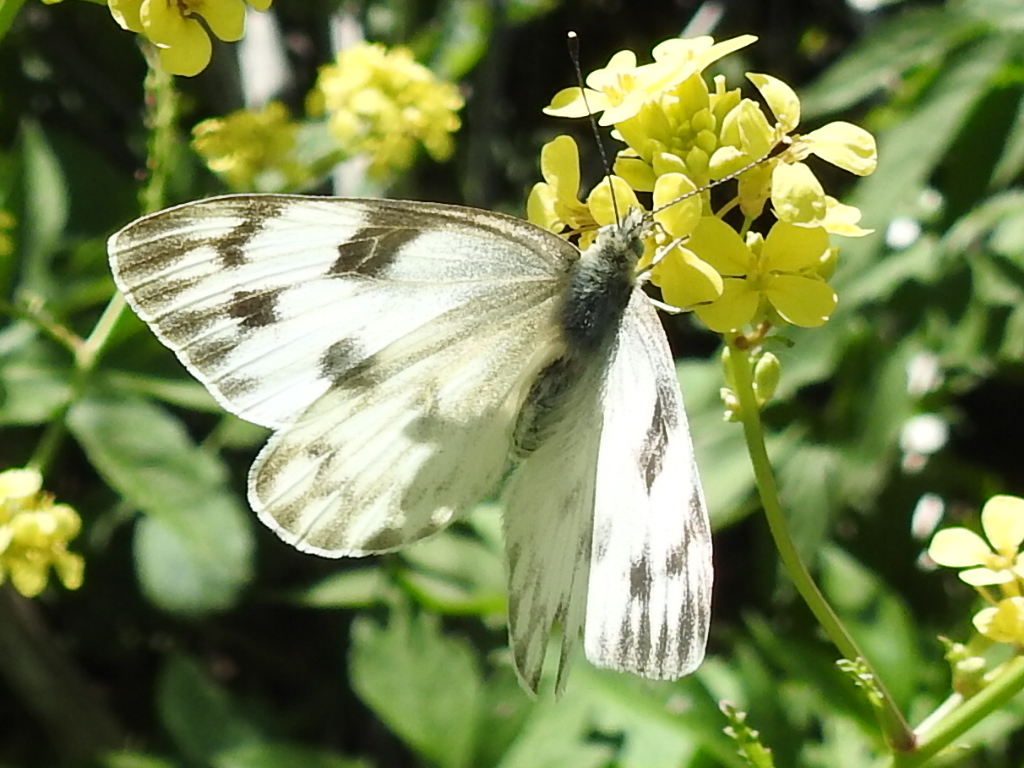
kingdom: Animalia
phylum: Arthropoda
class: Insecta
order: Lepidoptera
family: Pieridae
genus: Pontia
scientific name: Pontia protodice
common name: Checkered white
